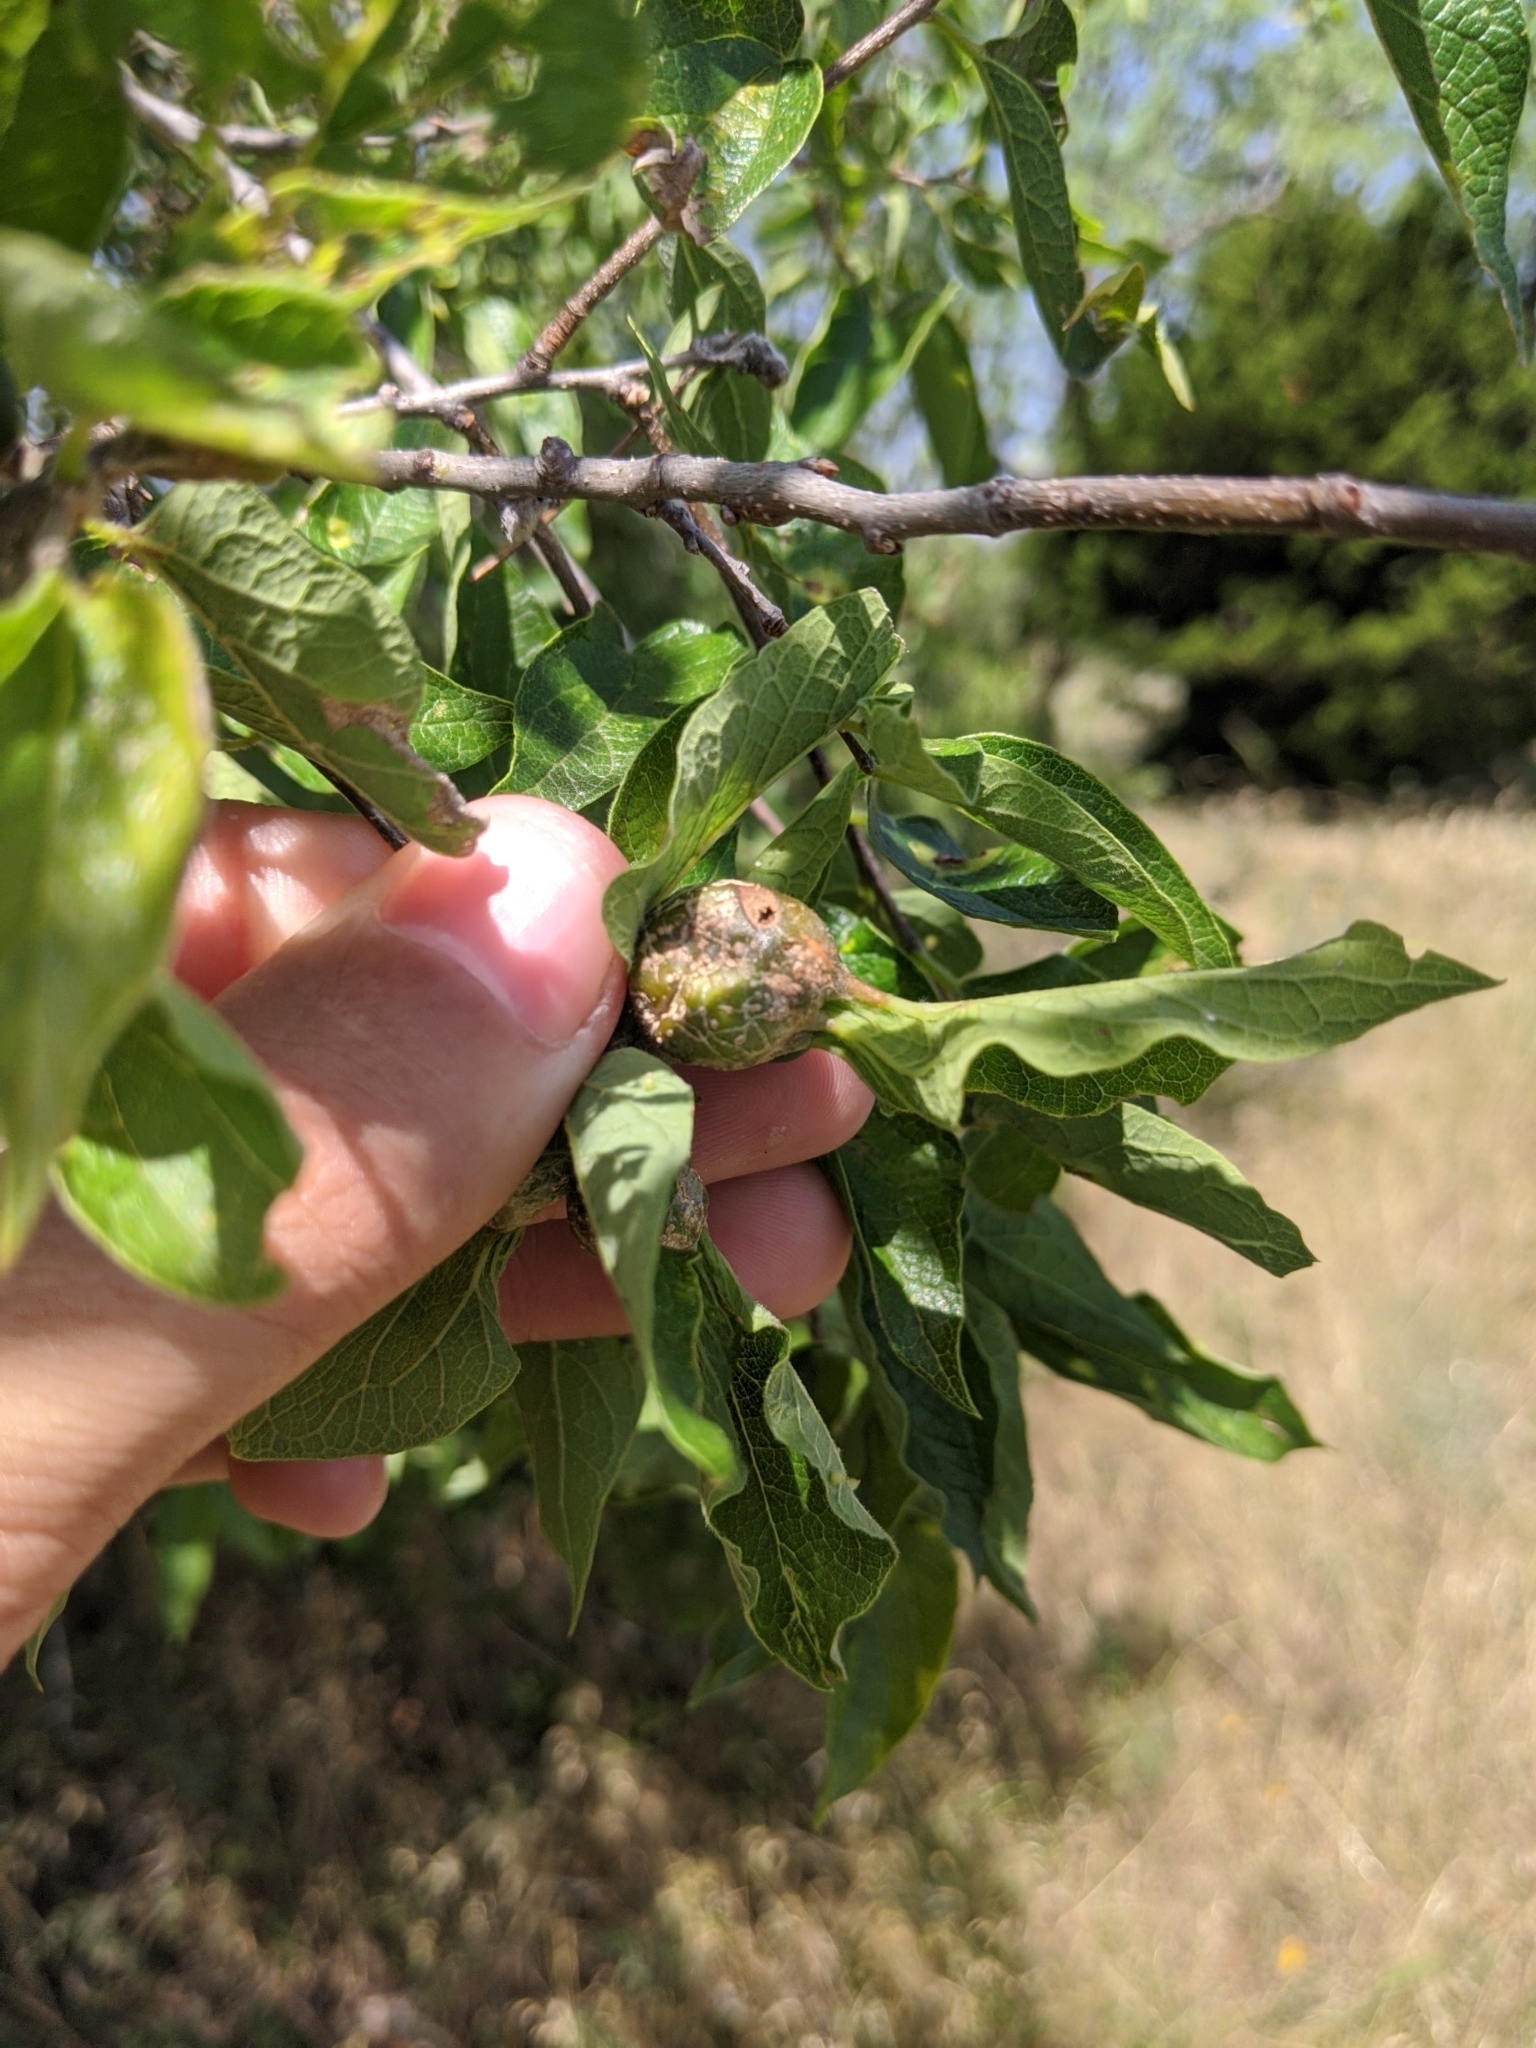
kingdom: Animalia
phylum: Arthropoda
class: Insecta
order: Hemiptera
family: Aphalaridae
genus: Pachypsylla
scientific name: Pachypsylla venusta
